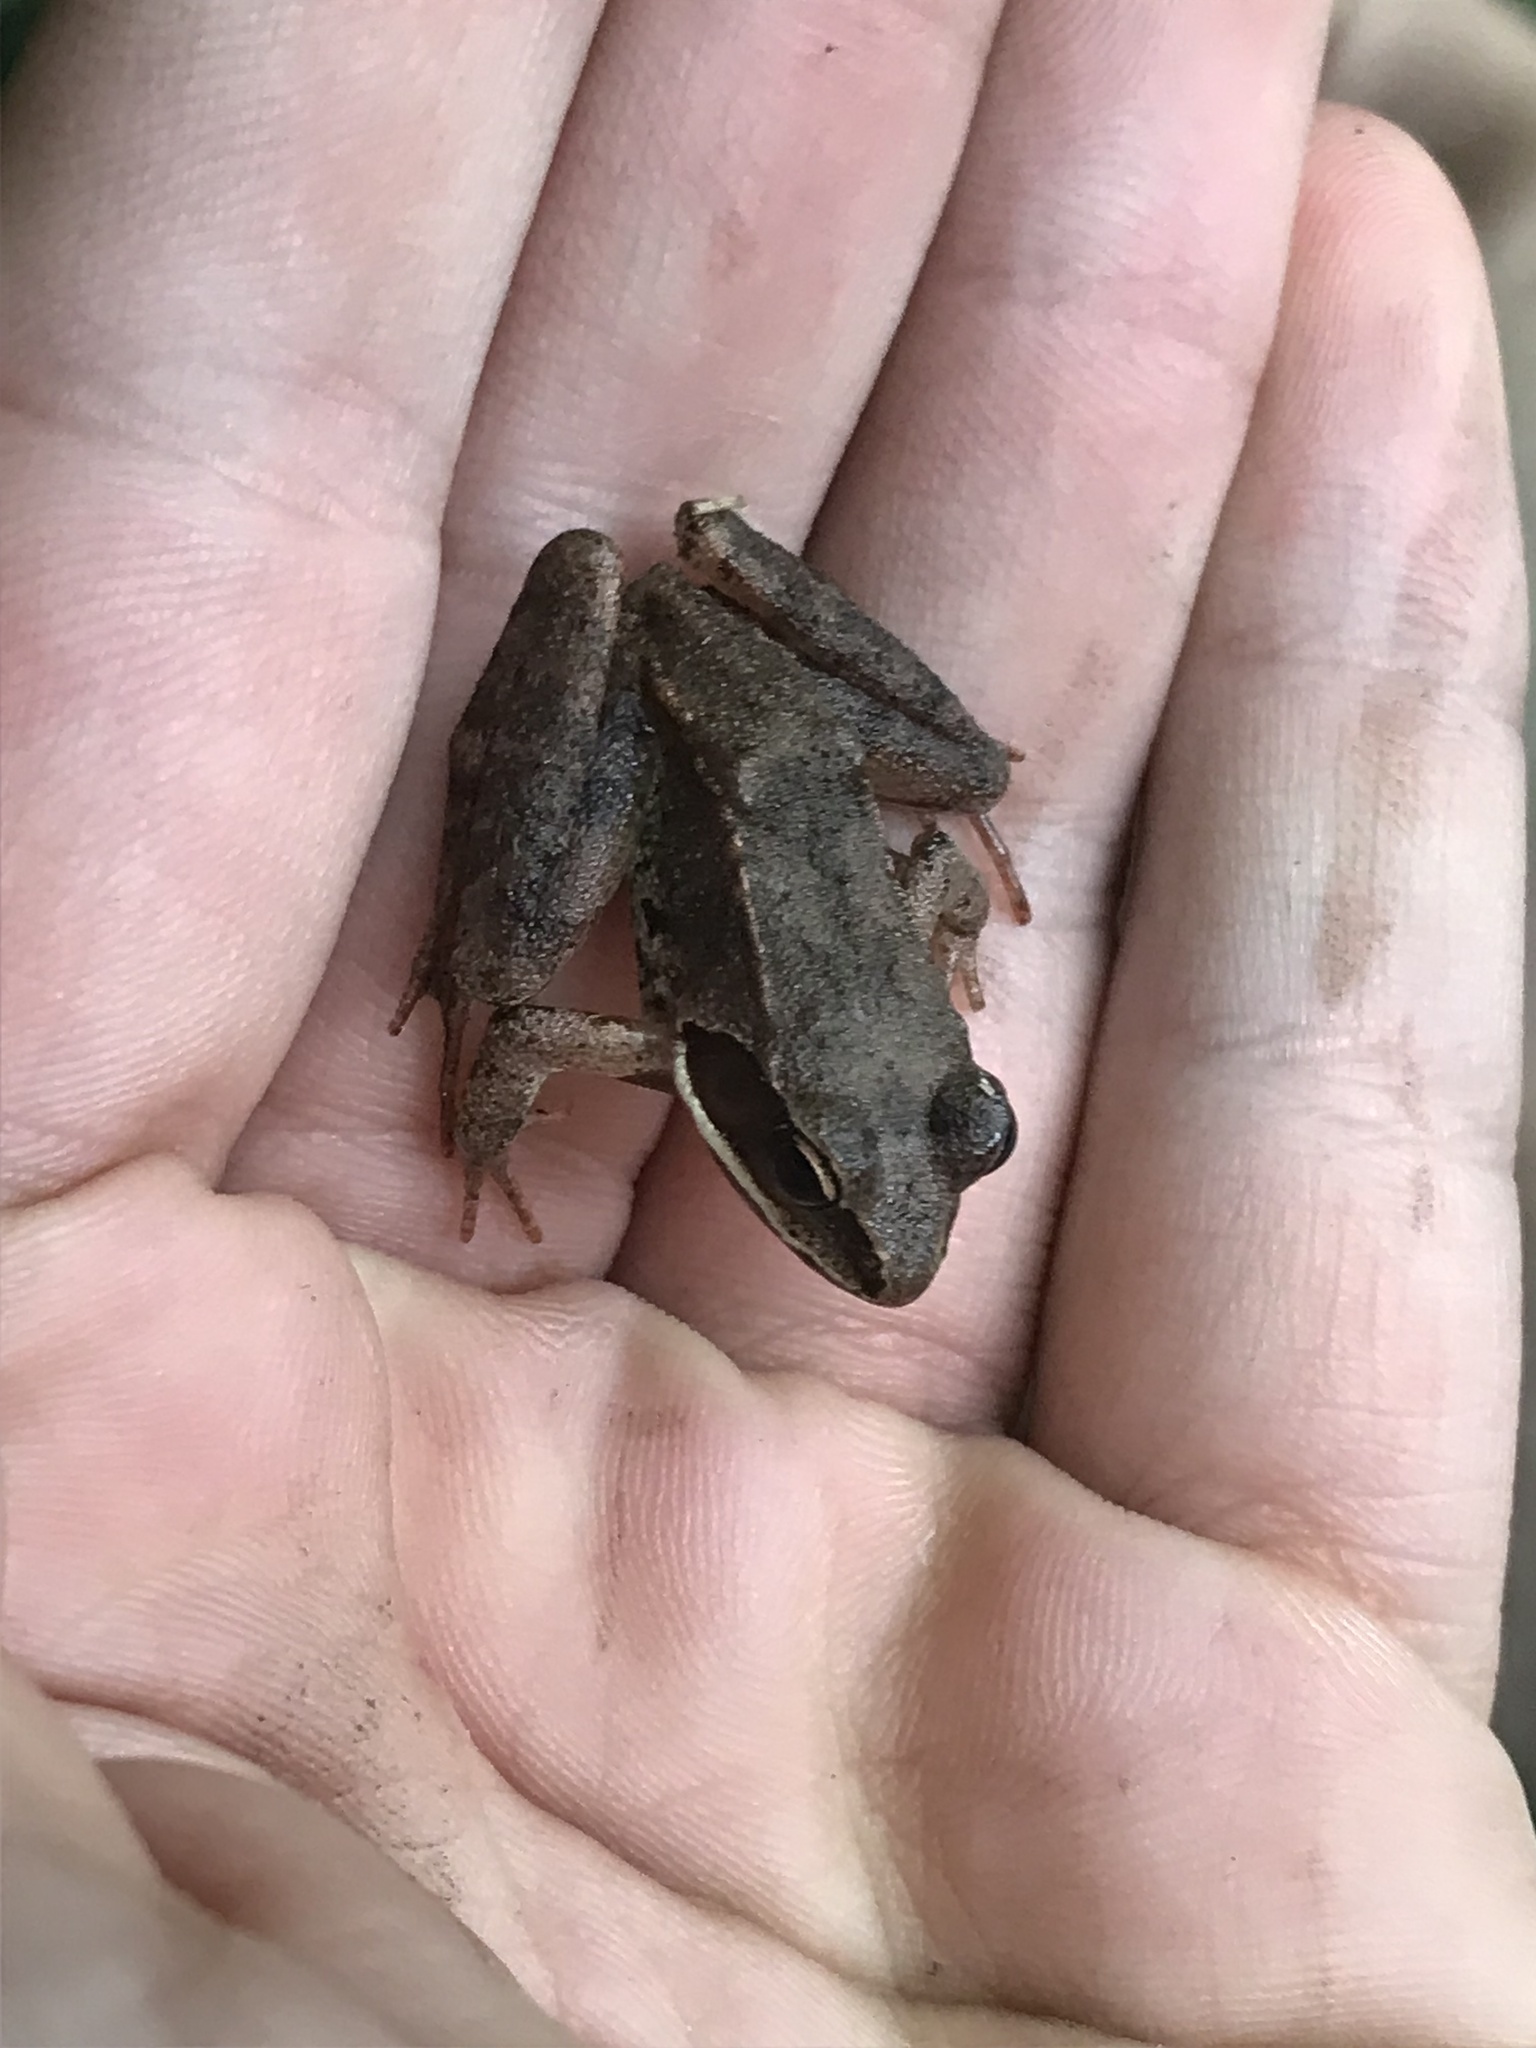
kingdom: Animalia
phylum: Chordata
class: Amphibia
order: Anura
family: Ranidae
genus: Lithobates
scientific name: Lithobates sylvaticus
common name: Wood frog
